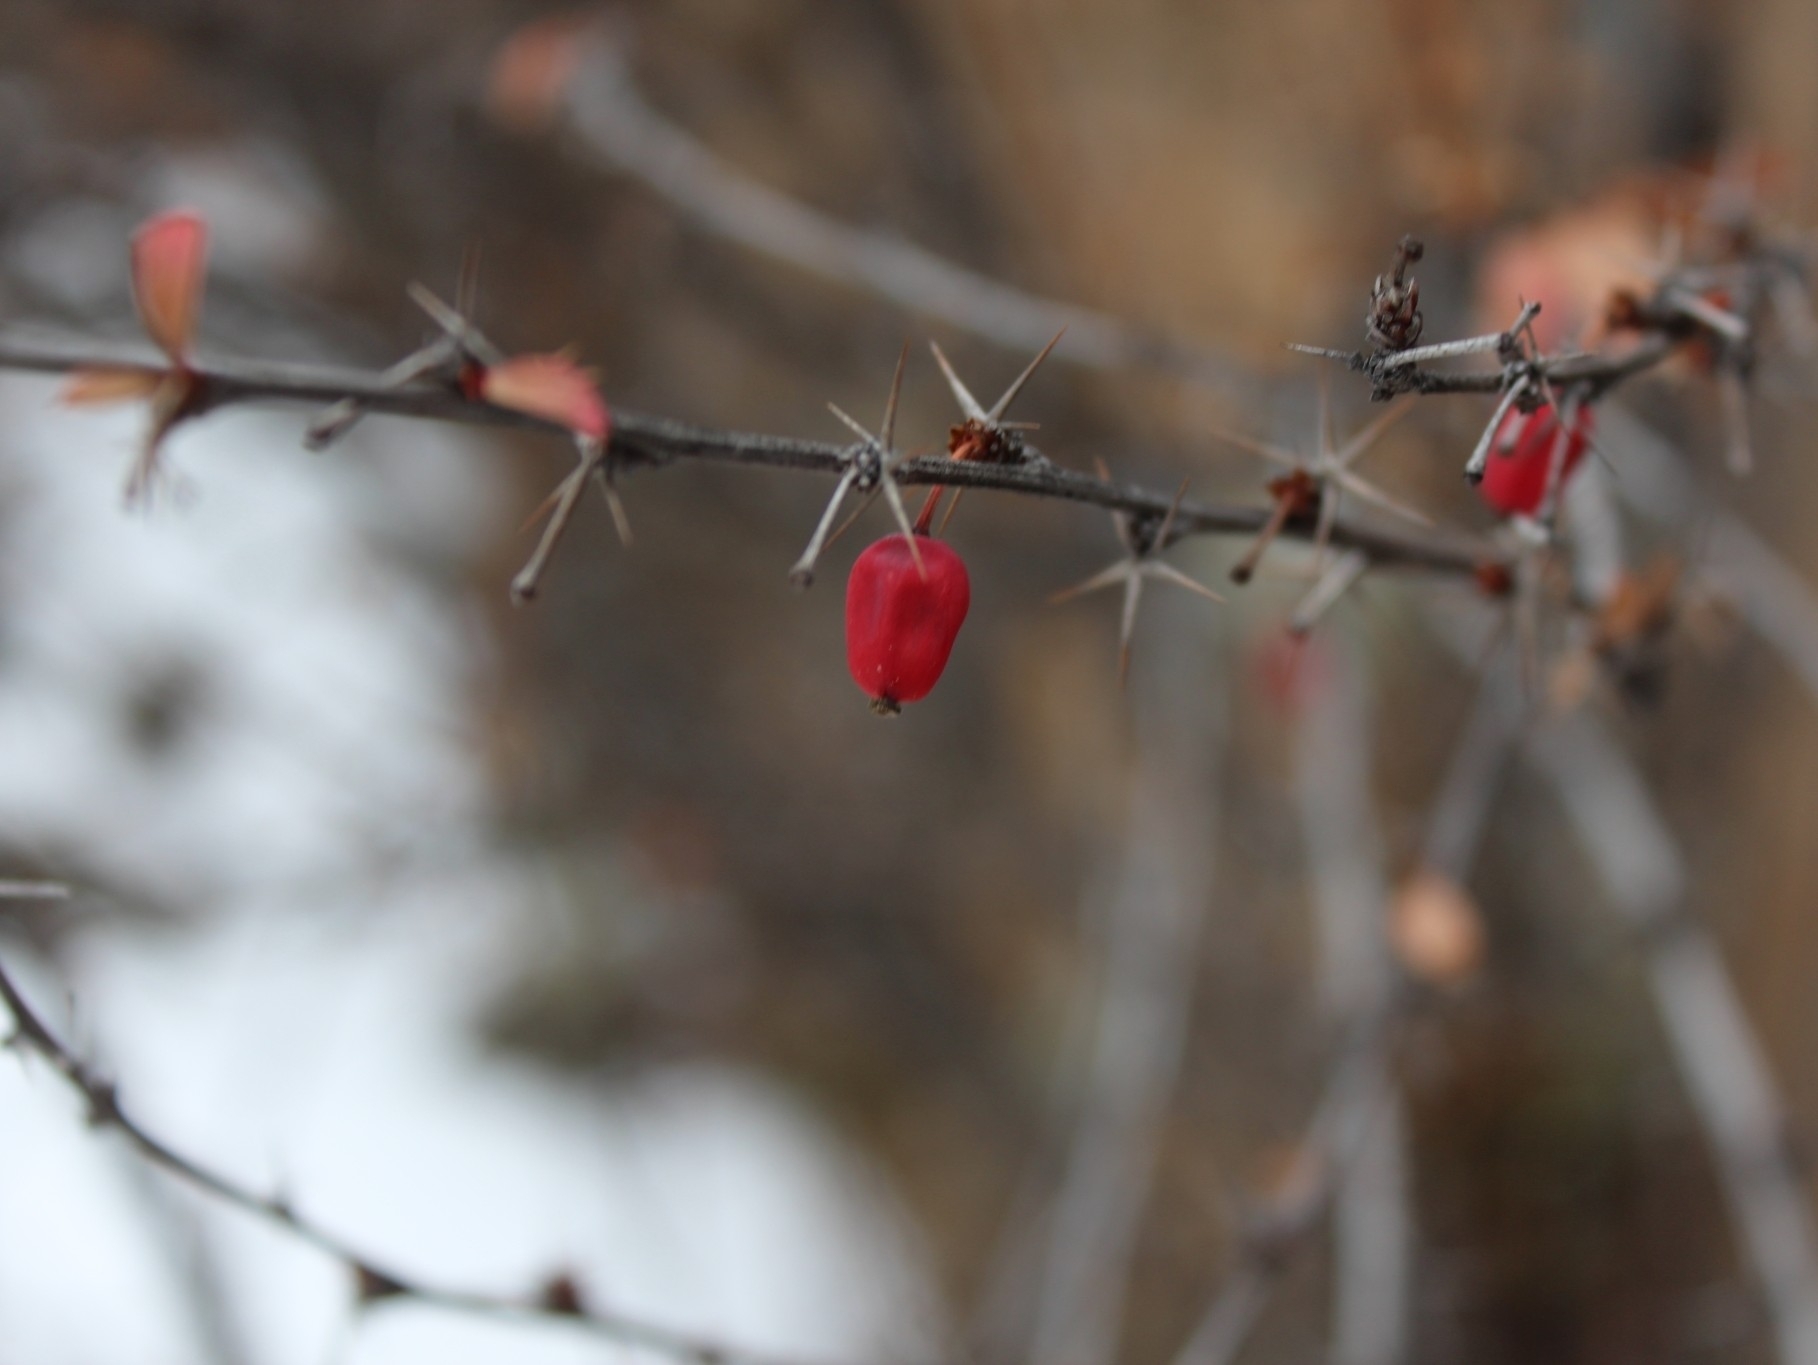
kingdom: Plantae
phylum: Tracheophyta
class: Magnoliopsida
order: Ranunculales
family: Berberidaceae
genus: Berberis
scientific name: Berberis sibirica
